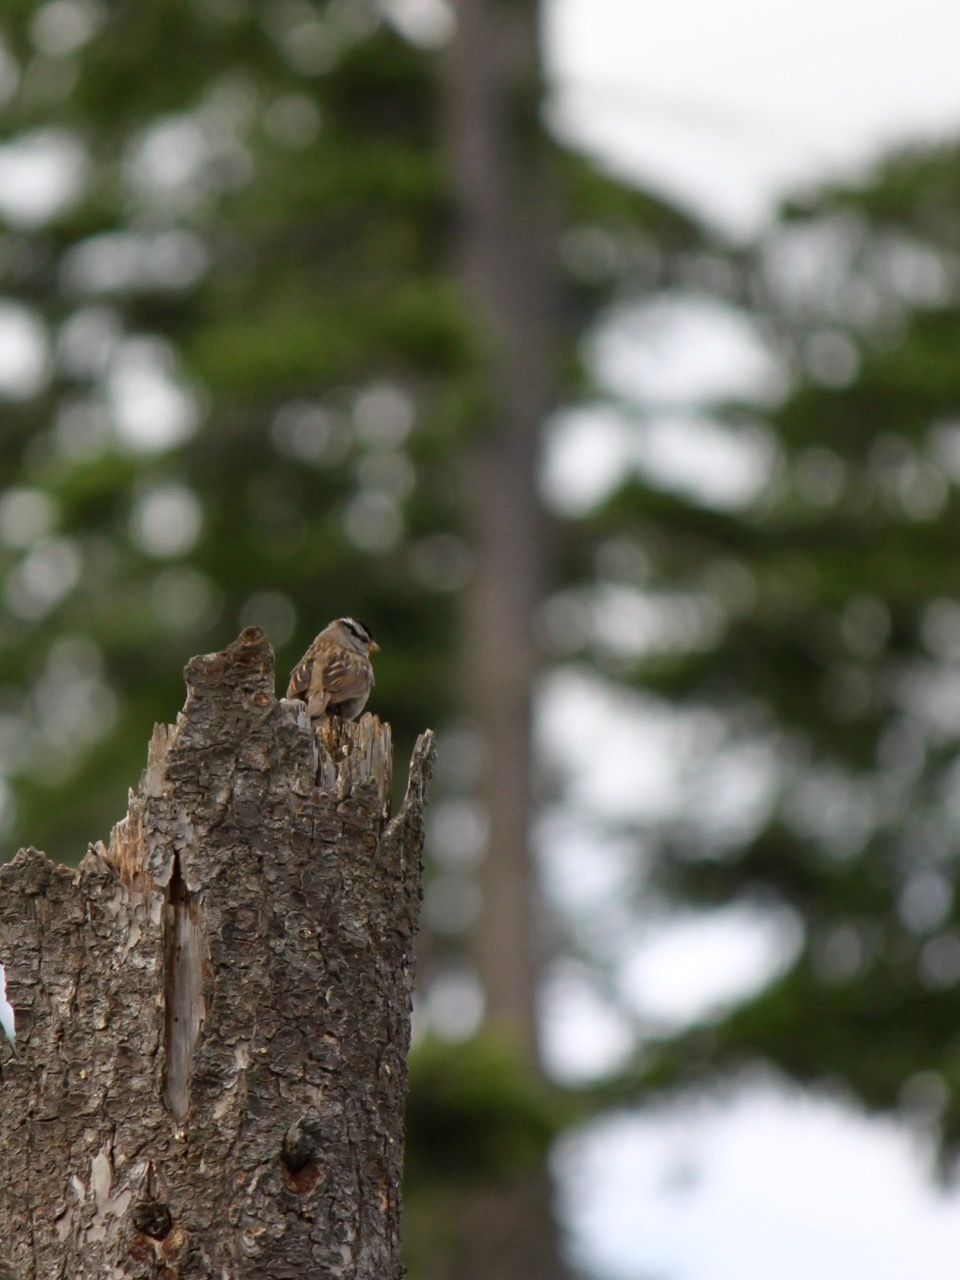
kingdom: Animalia
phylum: Chordata
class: Aves
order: Passeriformes
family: Passerellidae
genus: Zonotrichia
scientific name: Zonotrichia leucophrys
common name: White-crowned sparrow
